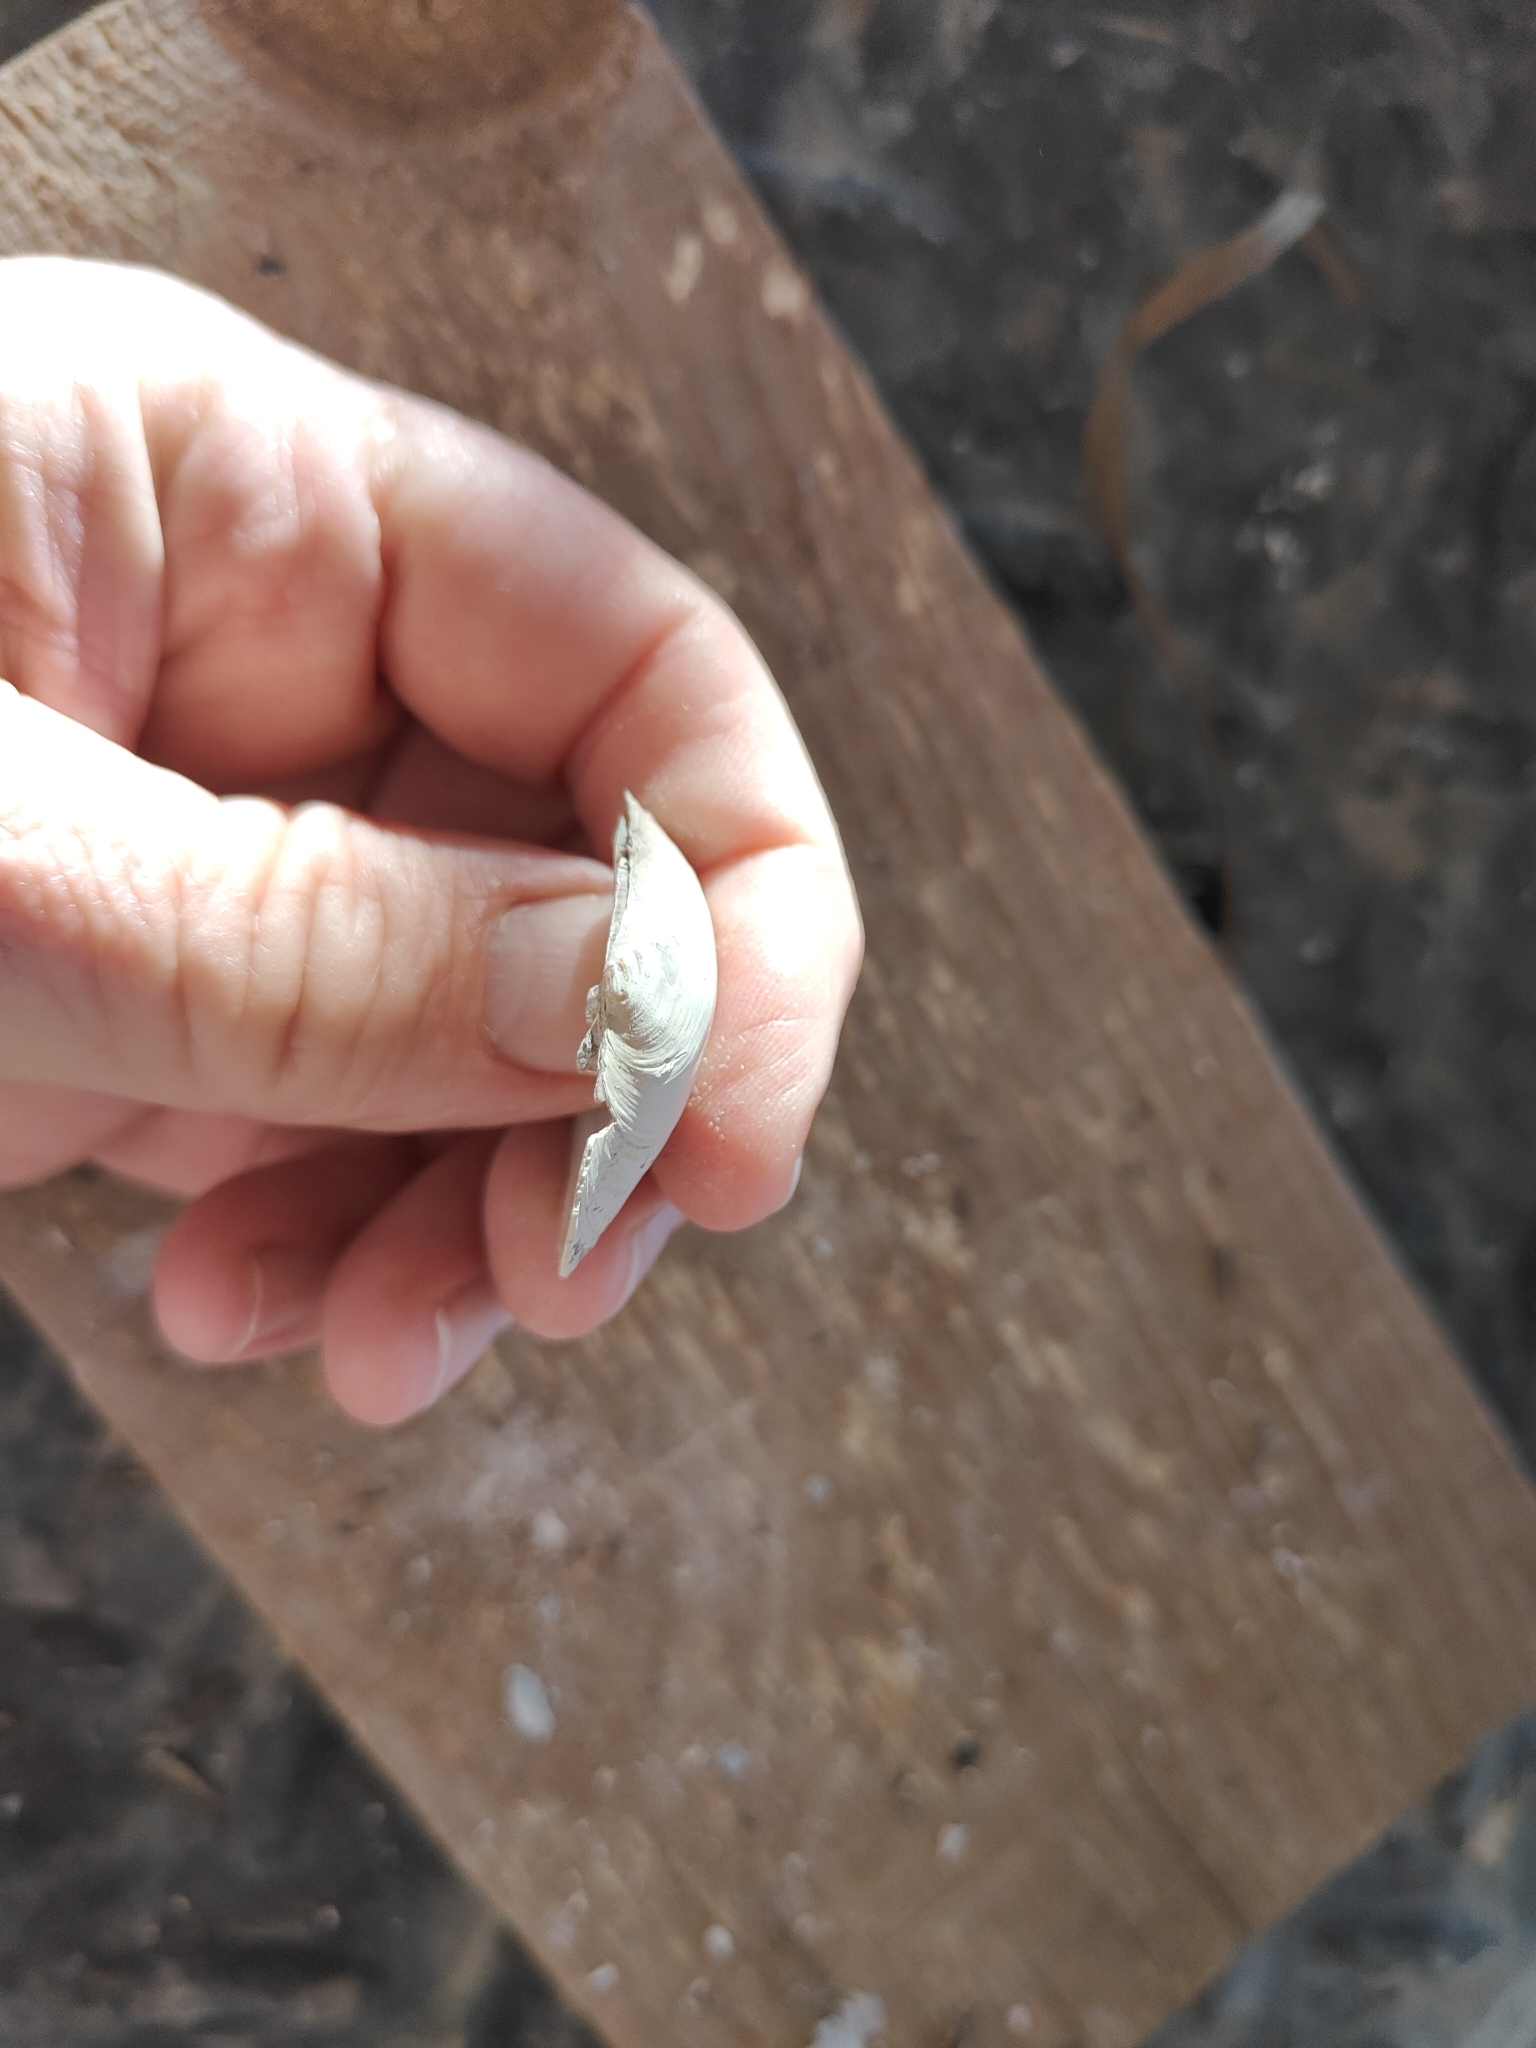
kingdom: Animalia
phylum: Mollusca
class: Bivalvia
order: Unionida
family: Unionidae
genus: Lampsilis
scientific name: Lampsilis cardium
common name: Plain pocketbook
